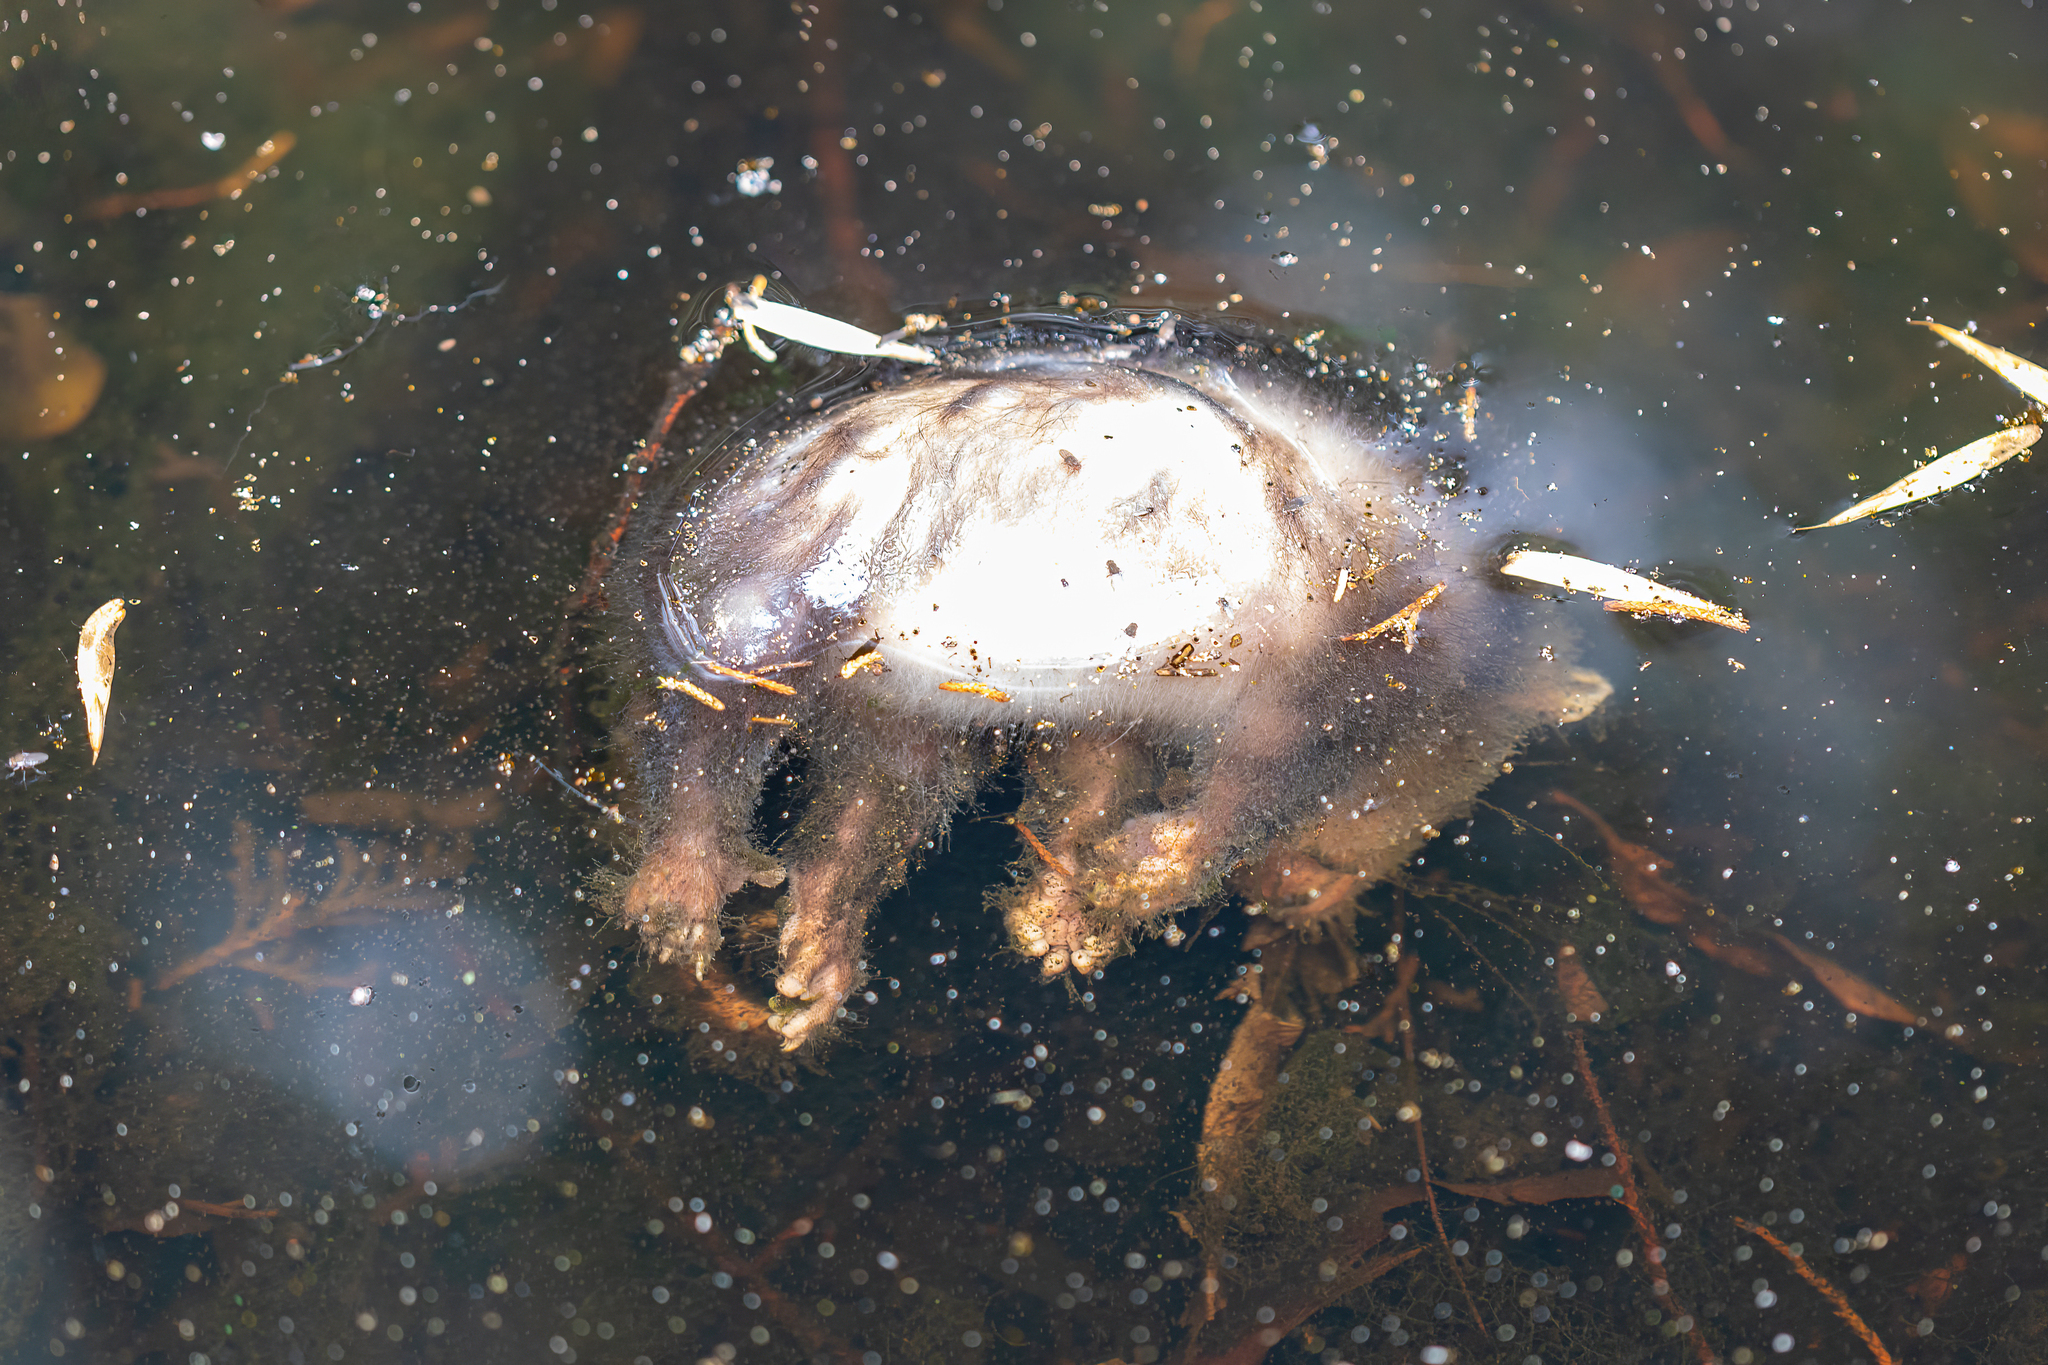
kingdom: Animalia
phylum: Chordata
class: Mammalia
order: Didelphimorphia
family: Didelphidae
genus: Didelphis
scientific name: Didelphis virginiana
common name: Virginia opossum
